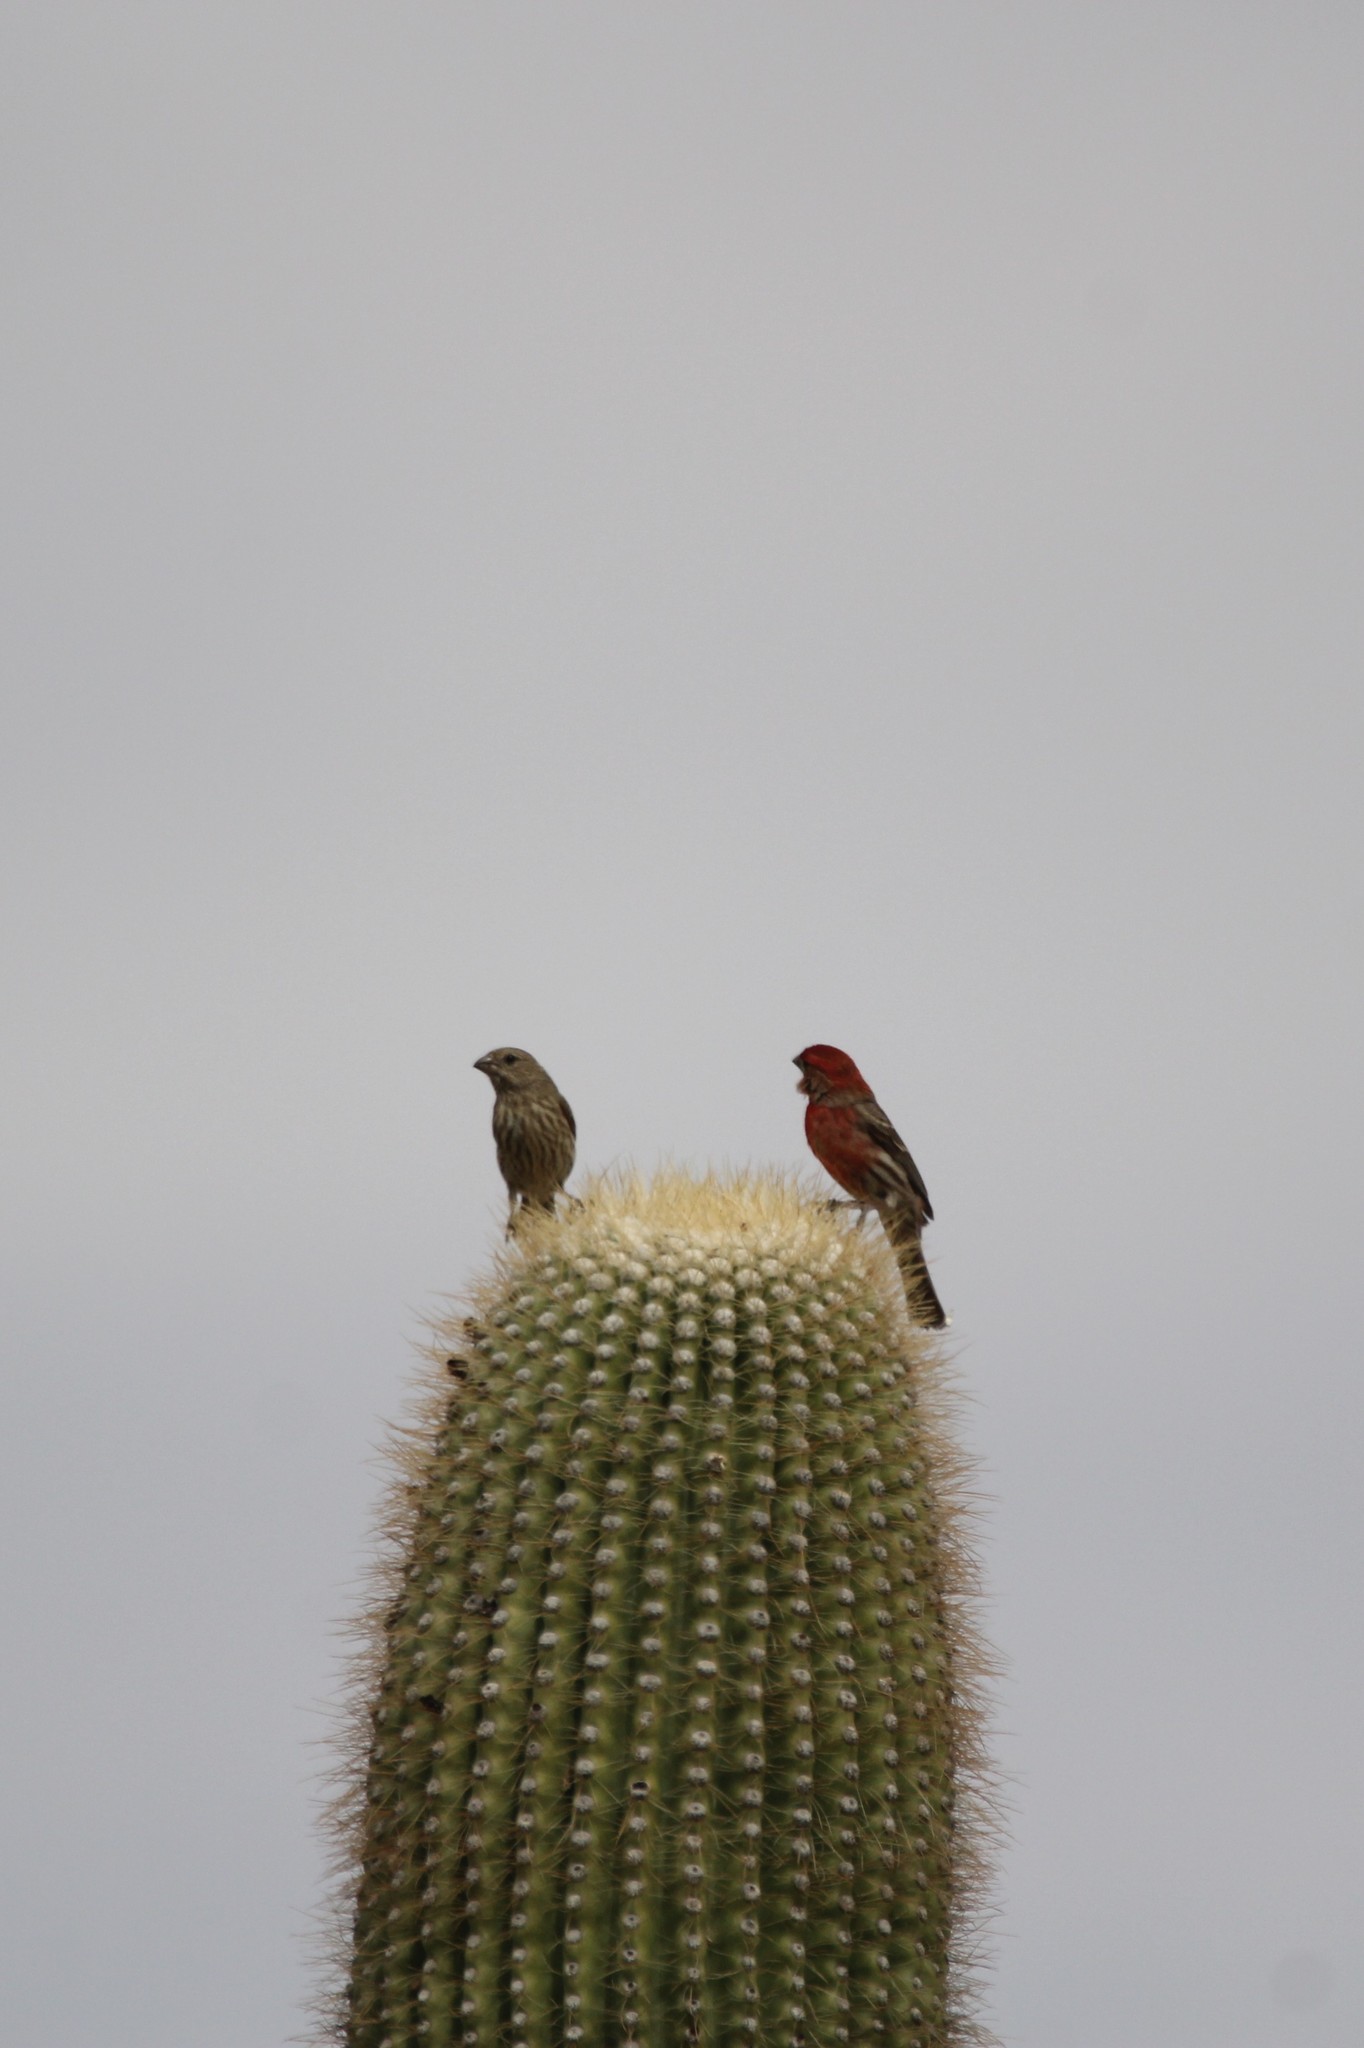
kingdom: Animalia
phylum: Chordata
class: Aves
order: Passeriformes
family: Fringillidae
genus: Haemorhous
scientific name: Haemorhous mexicanus
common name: House finch
